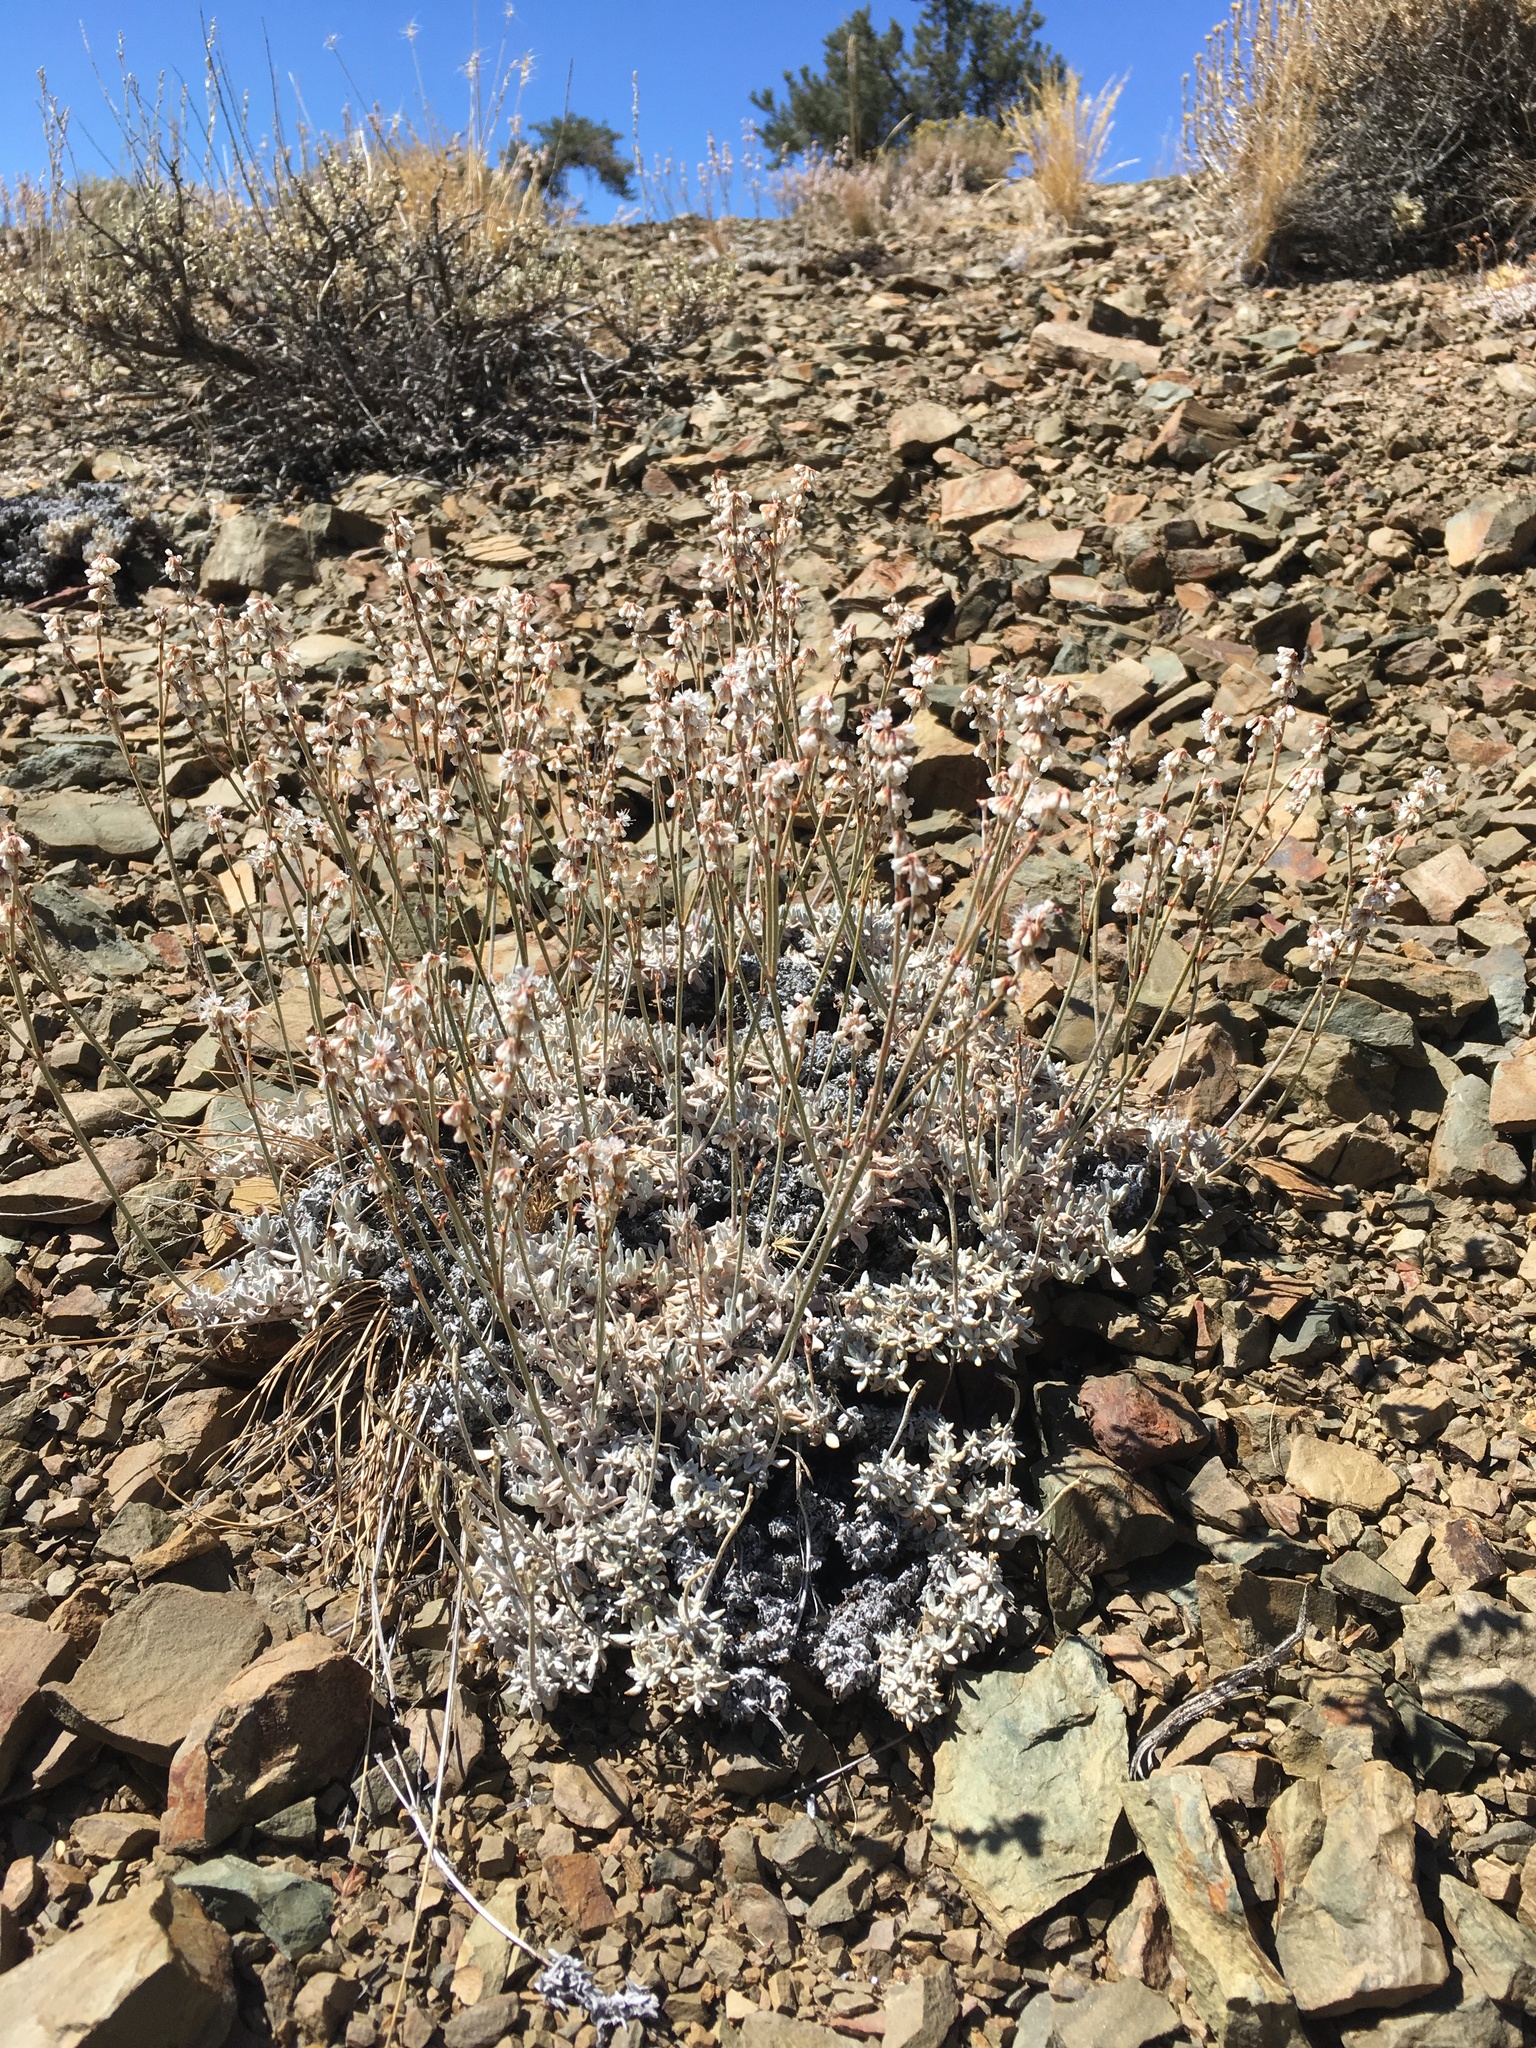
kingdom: Plantae
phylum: Tracheophyta
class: Magnoliopsida
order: Caryophyllales
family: Polygonaceae
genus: Eriogonum
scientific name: Eriogonum wrightii
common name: Bastard-sage
